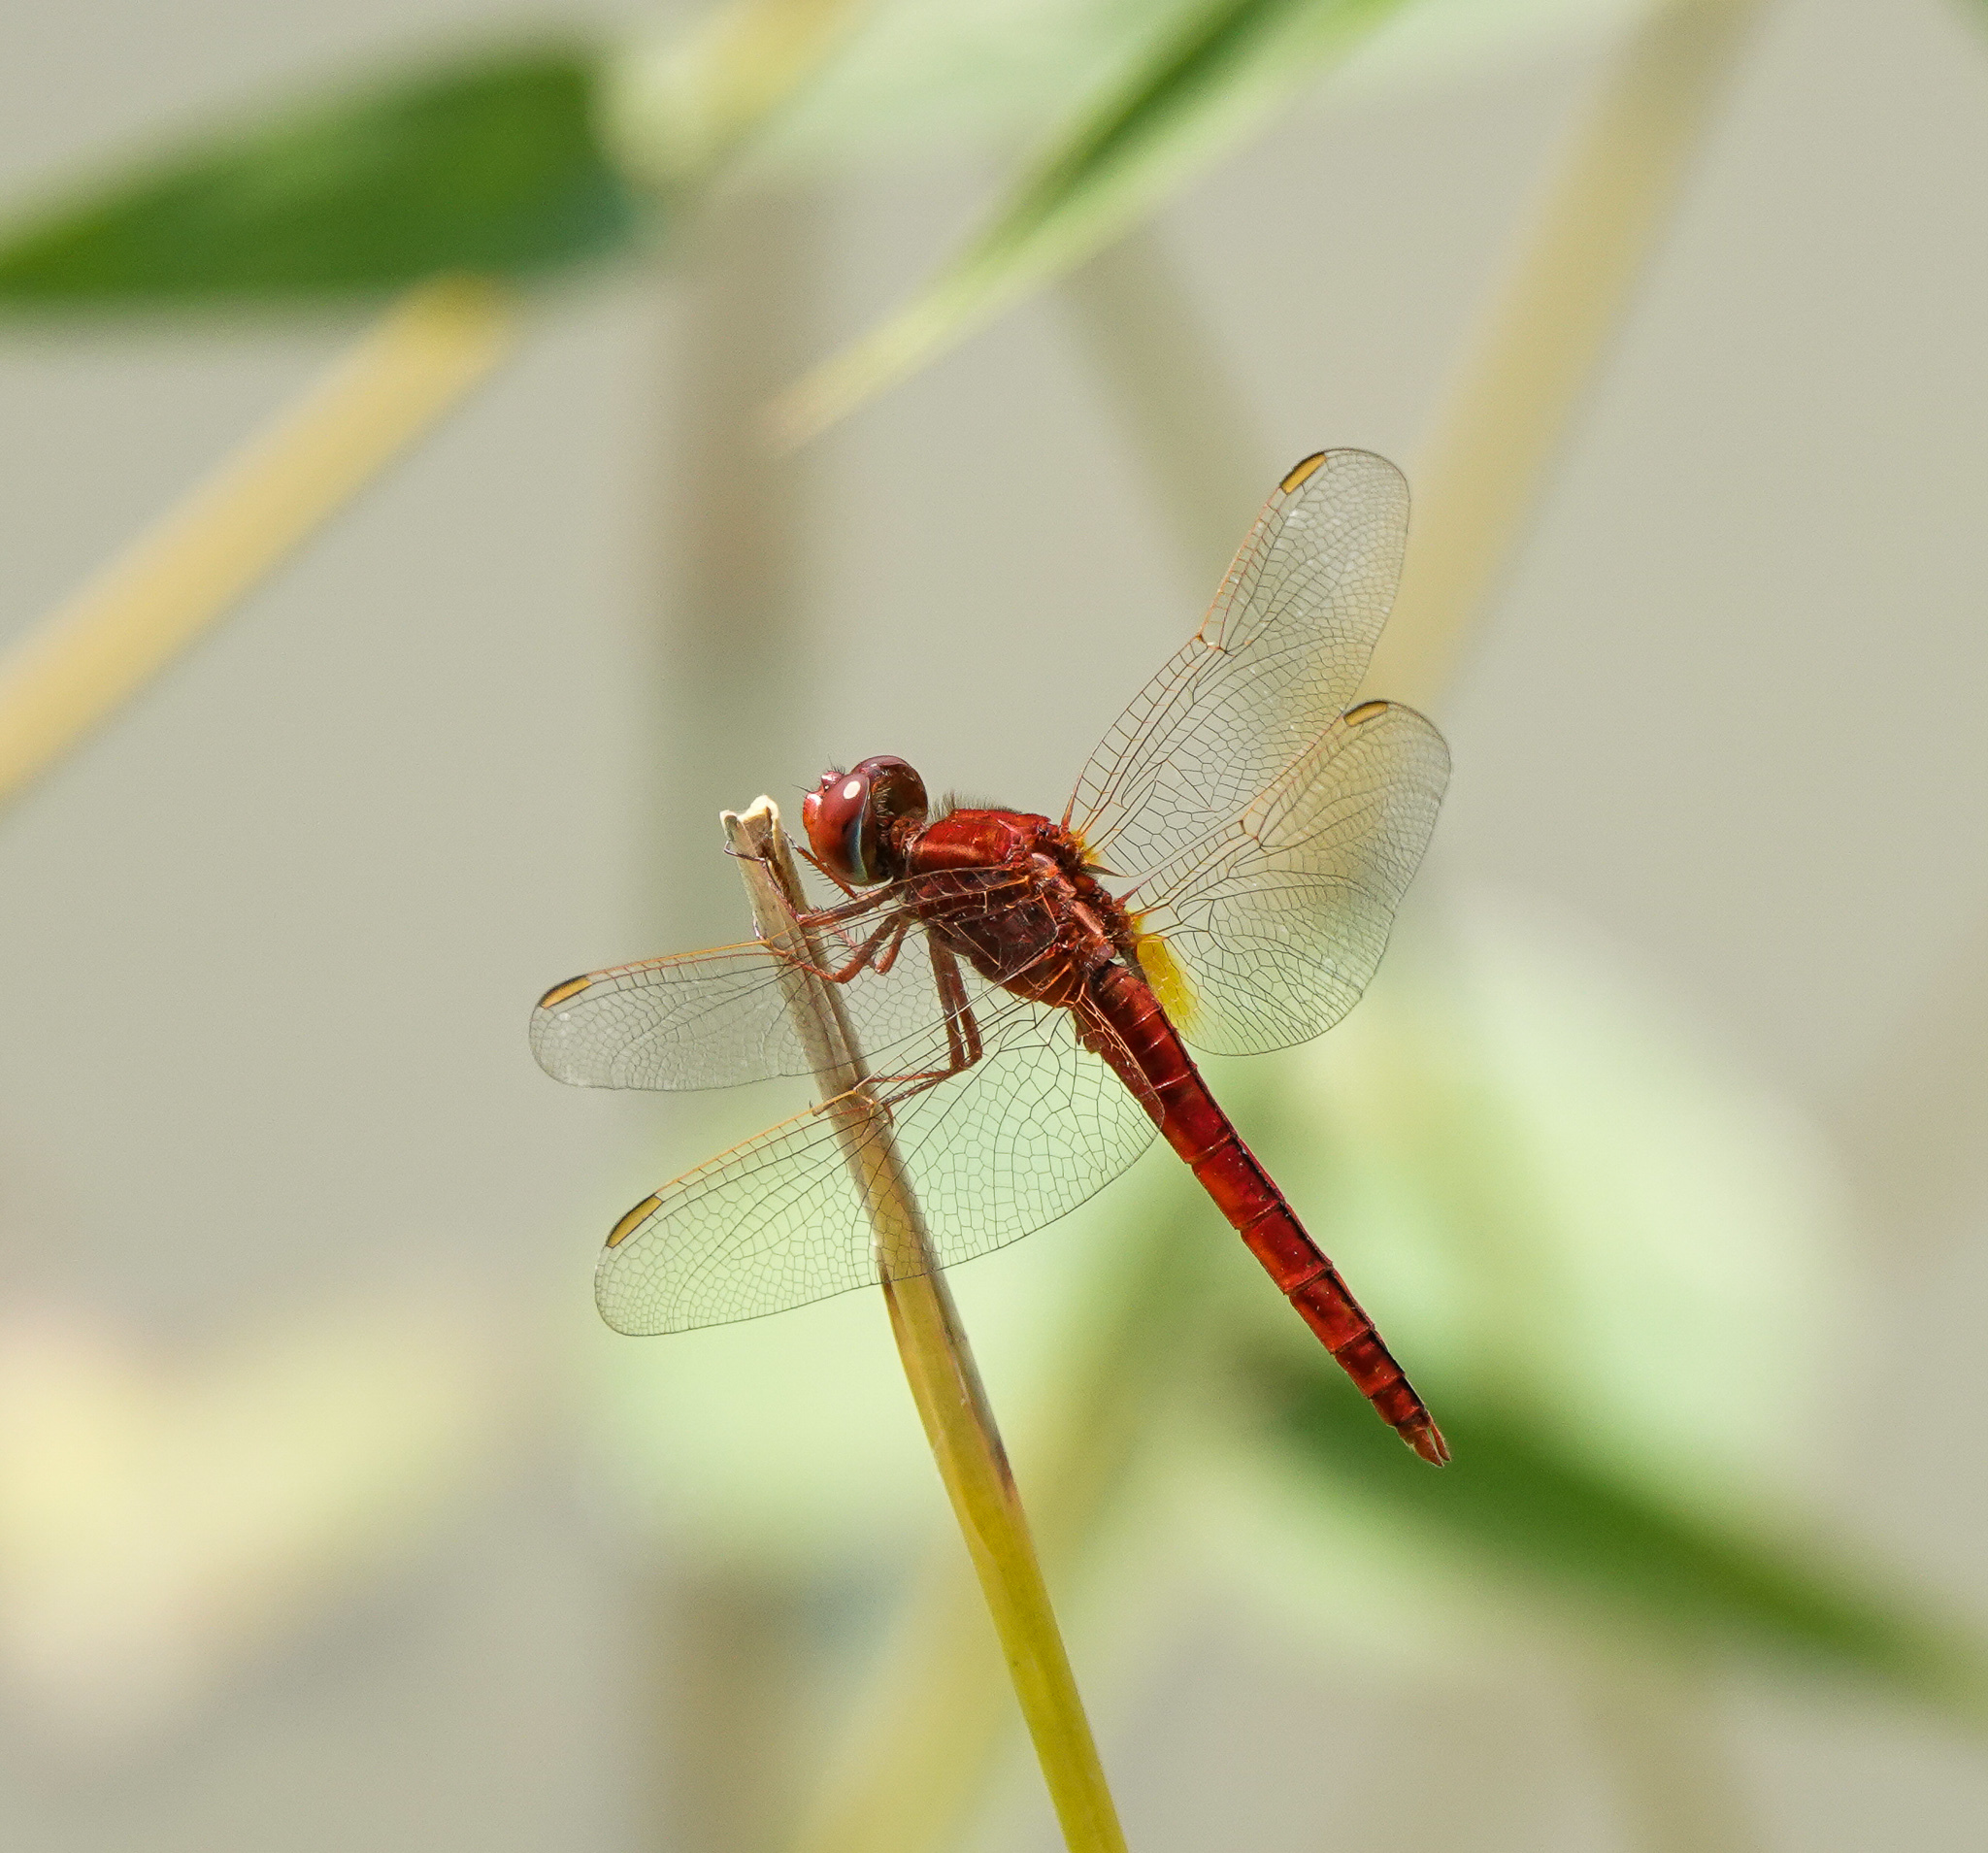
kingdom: Animalia
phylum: Arthropoda
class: Insecta
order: Odonata
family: Libellulidae
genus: Crocothemis
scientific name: Crocothemis servilia
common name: Scarlet skimmer
